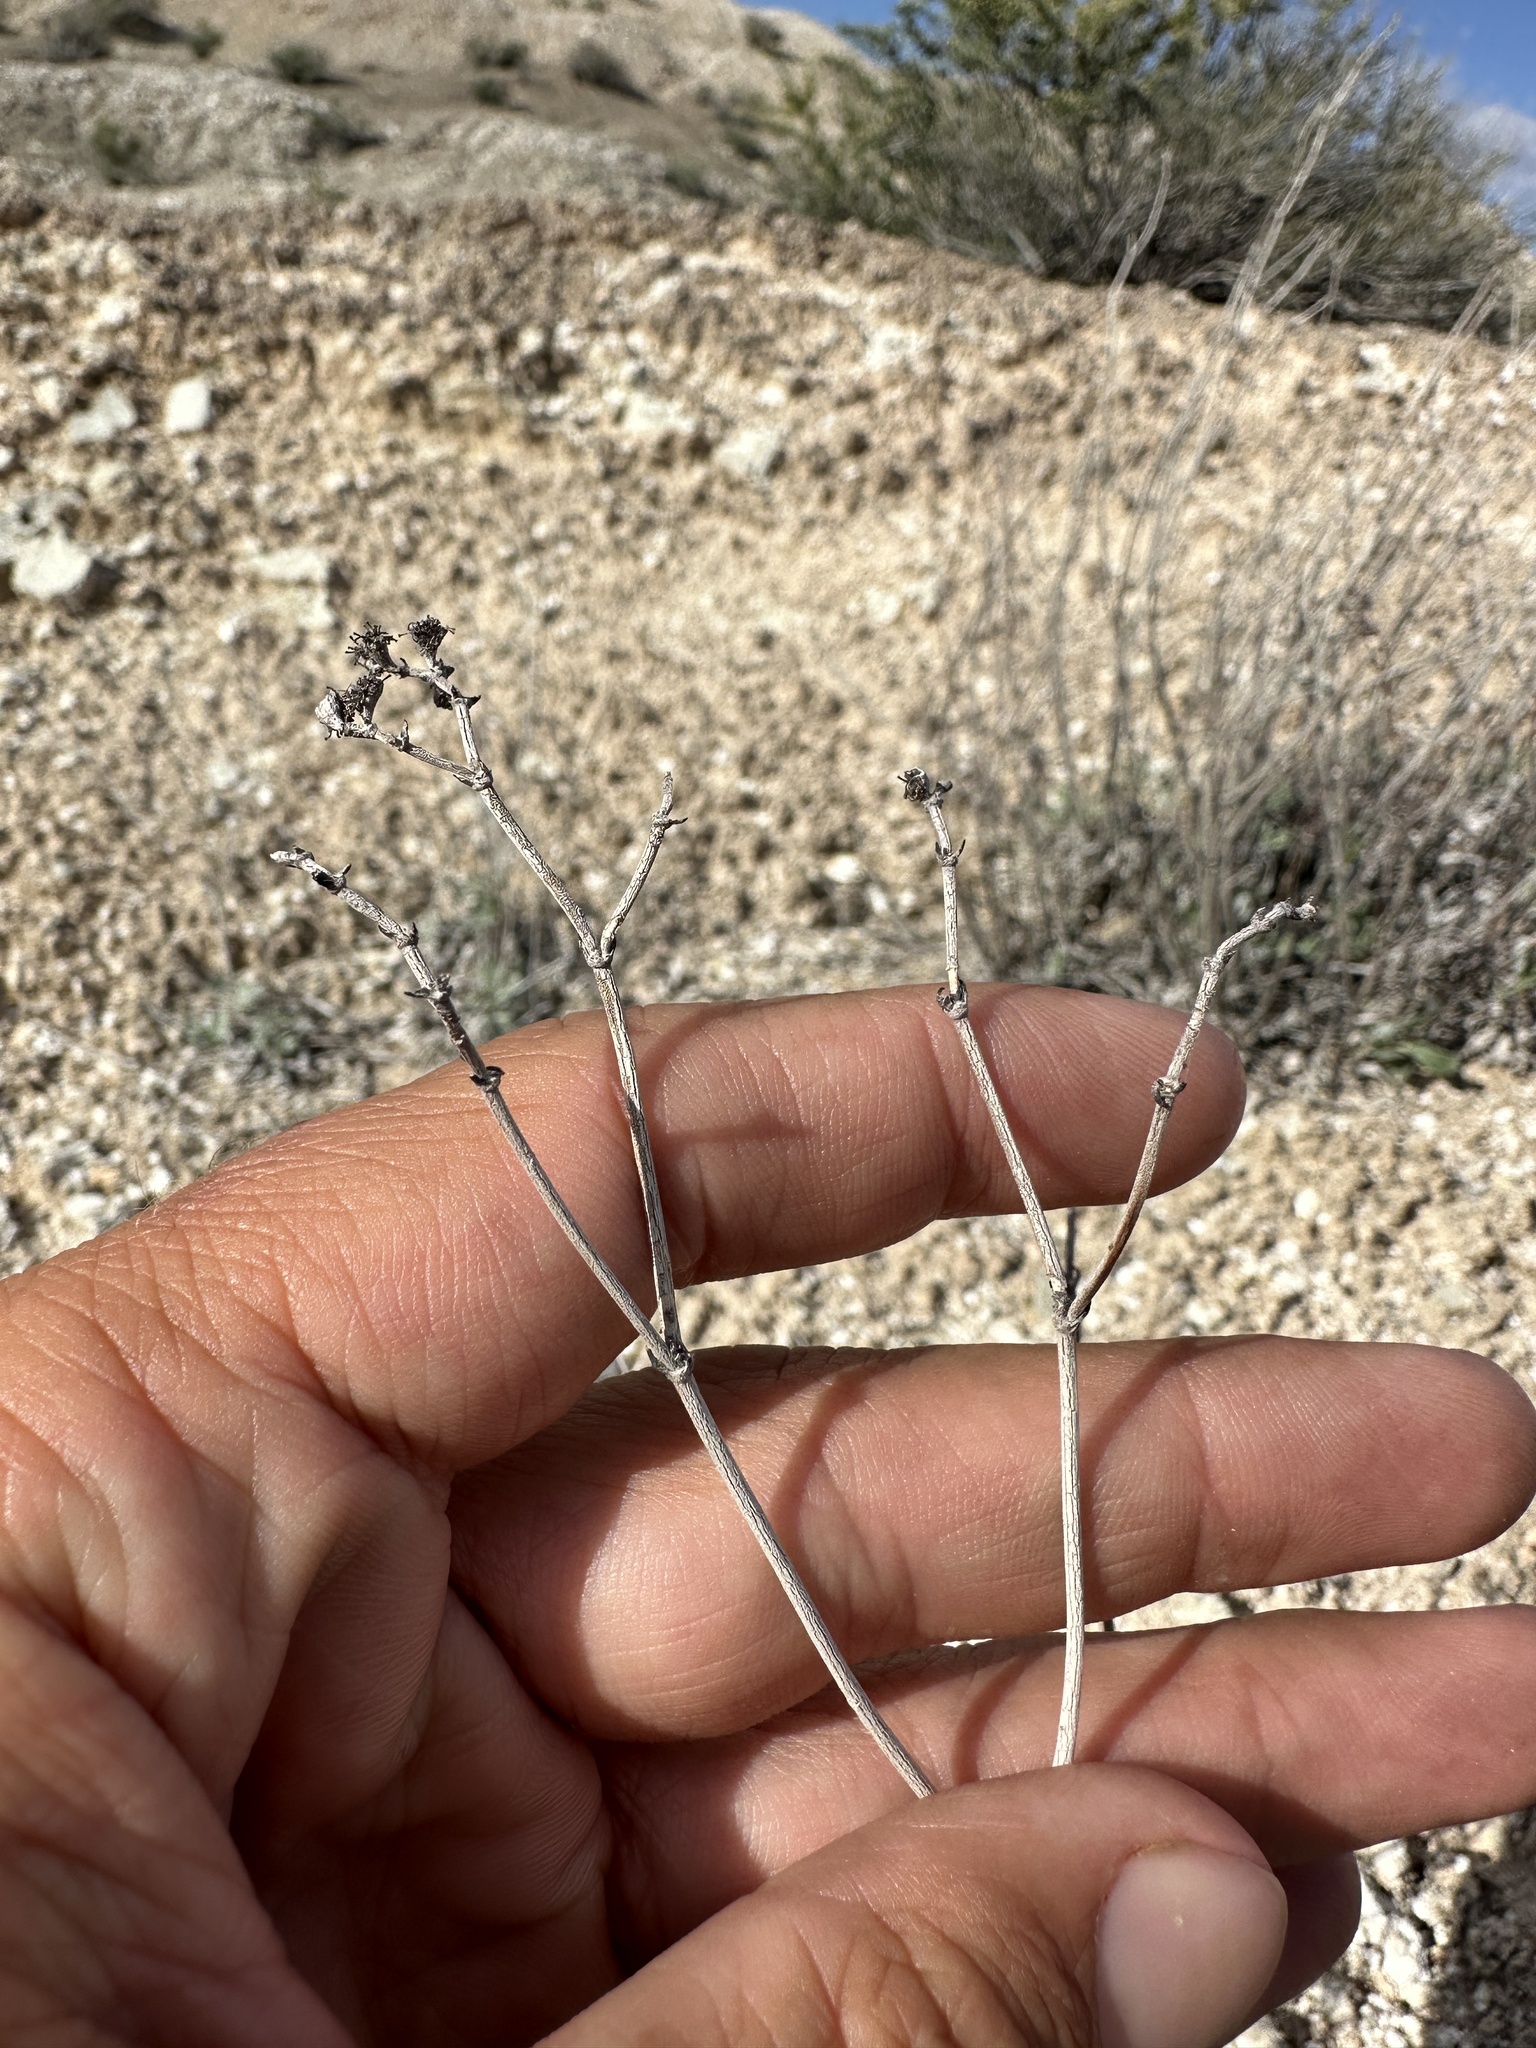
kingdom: Plantae
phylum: Tracheophyta
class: Magnoliopsida
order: Caryophyllales
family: Polygonaceae
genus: Eriogonum
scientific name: Eriogonum thompsoniae
